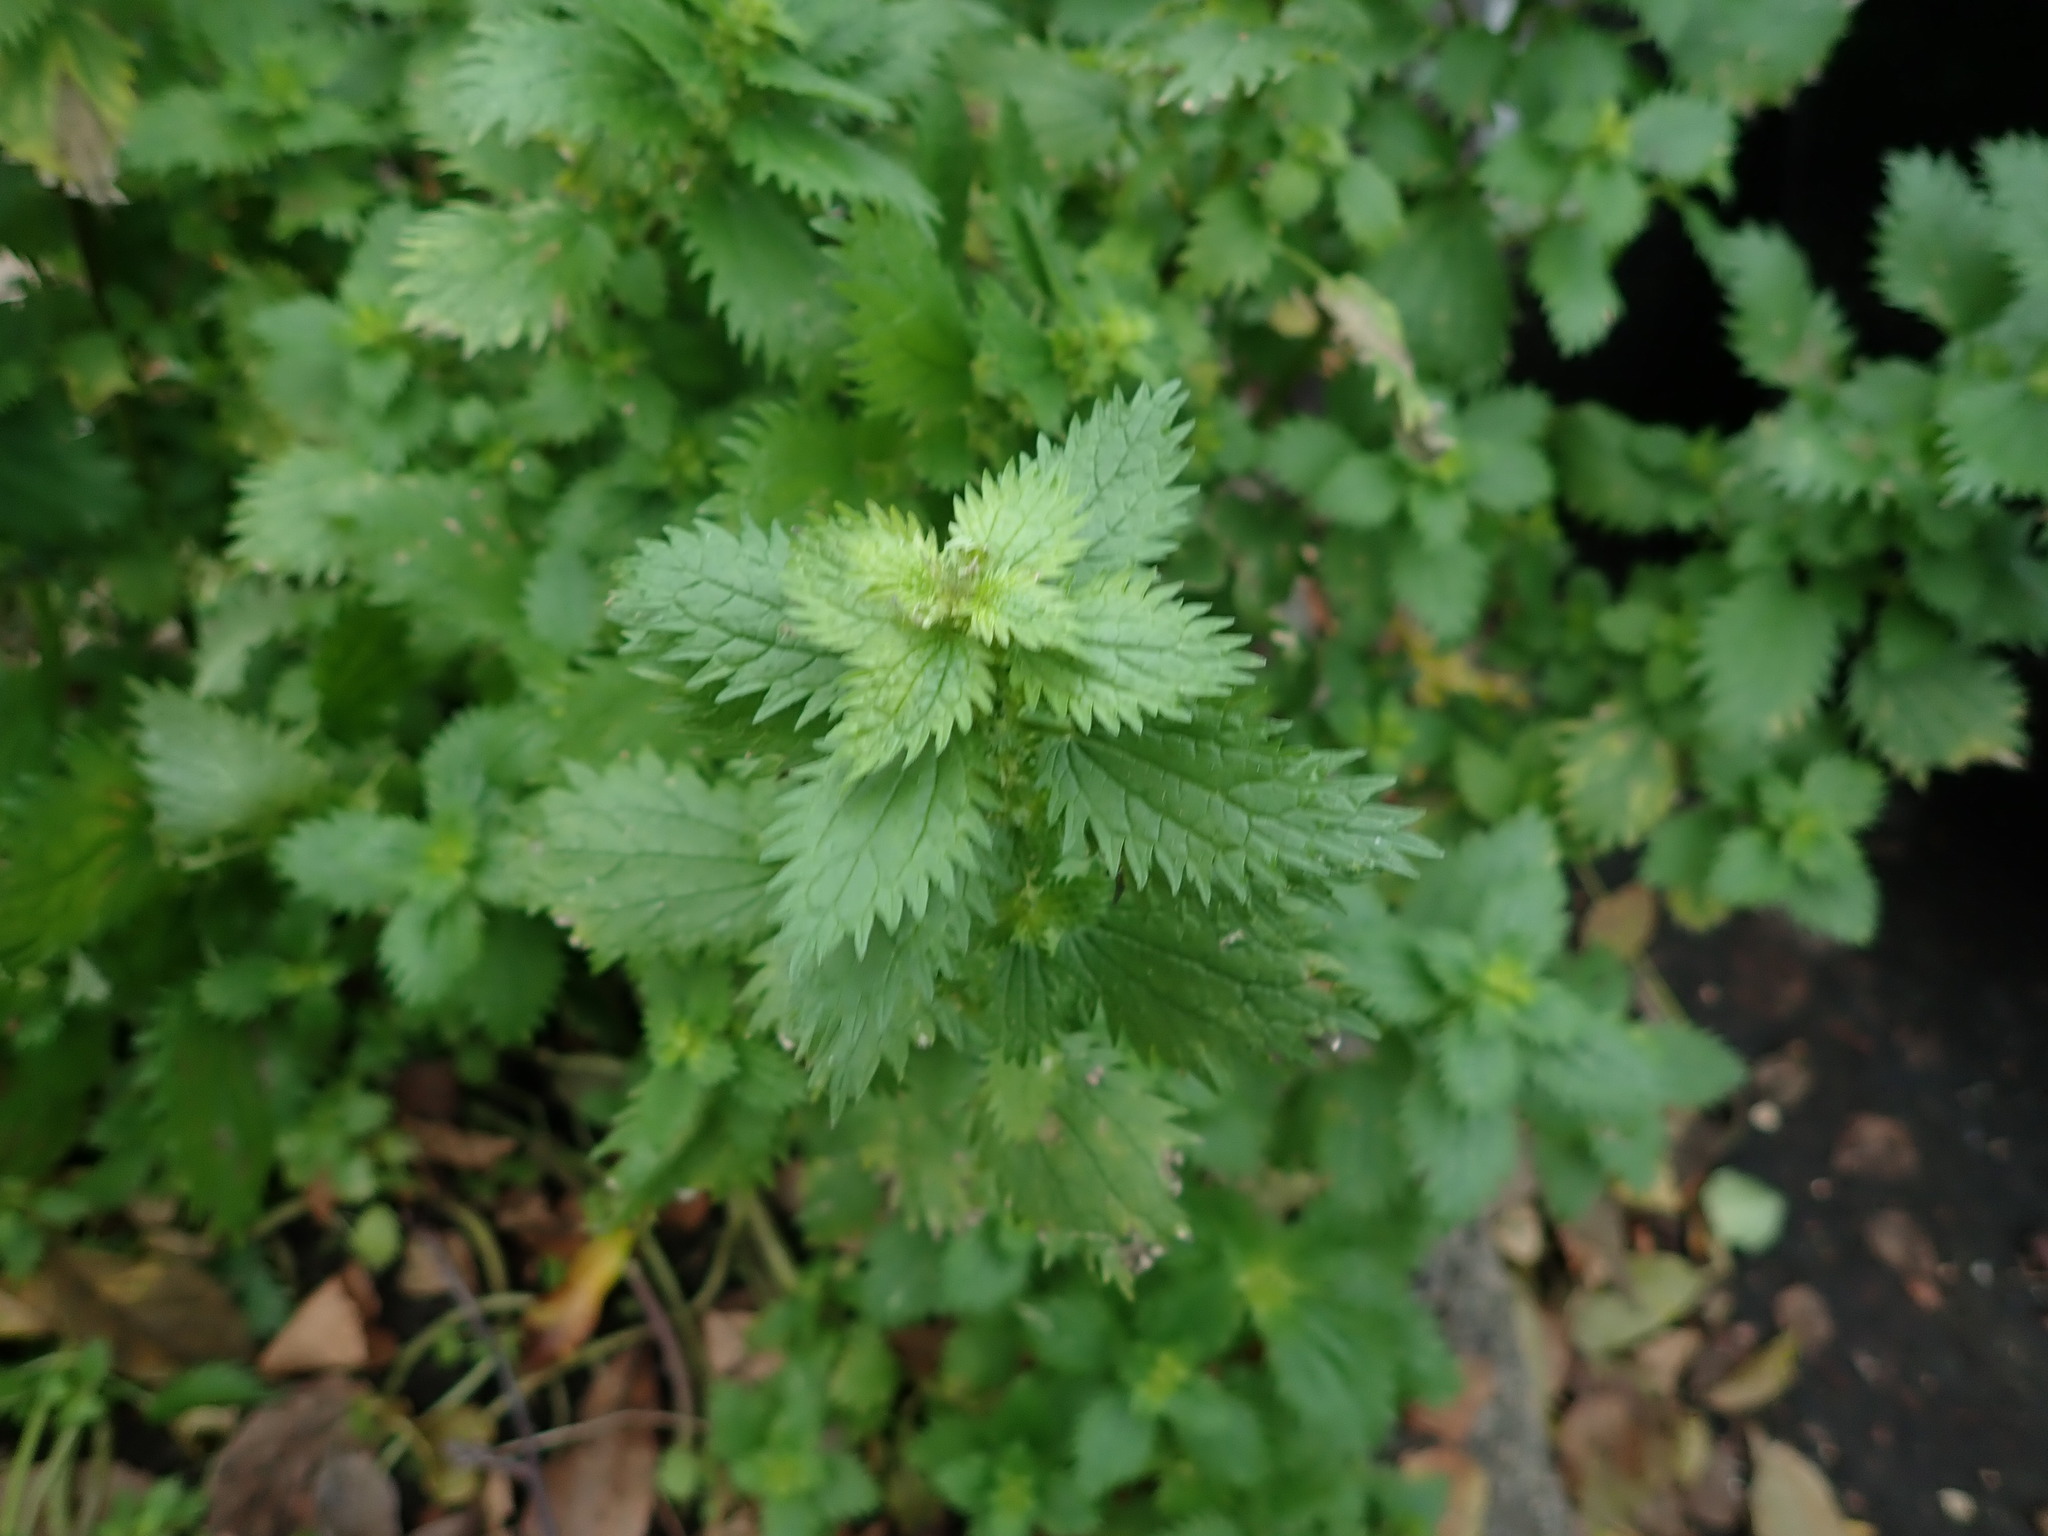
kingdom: Plantae
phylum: Tracheophyta
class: Magnoliopsida
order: Rosales
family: Urticaceae
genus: Urtica
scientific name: Urtica urens
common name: Dwarf nettle
